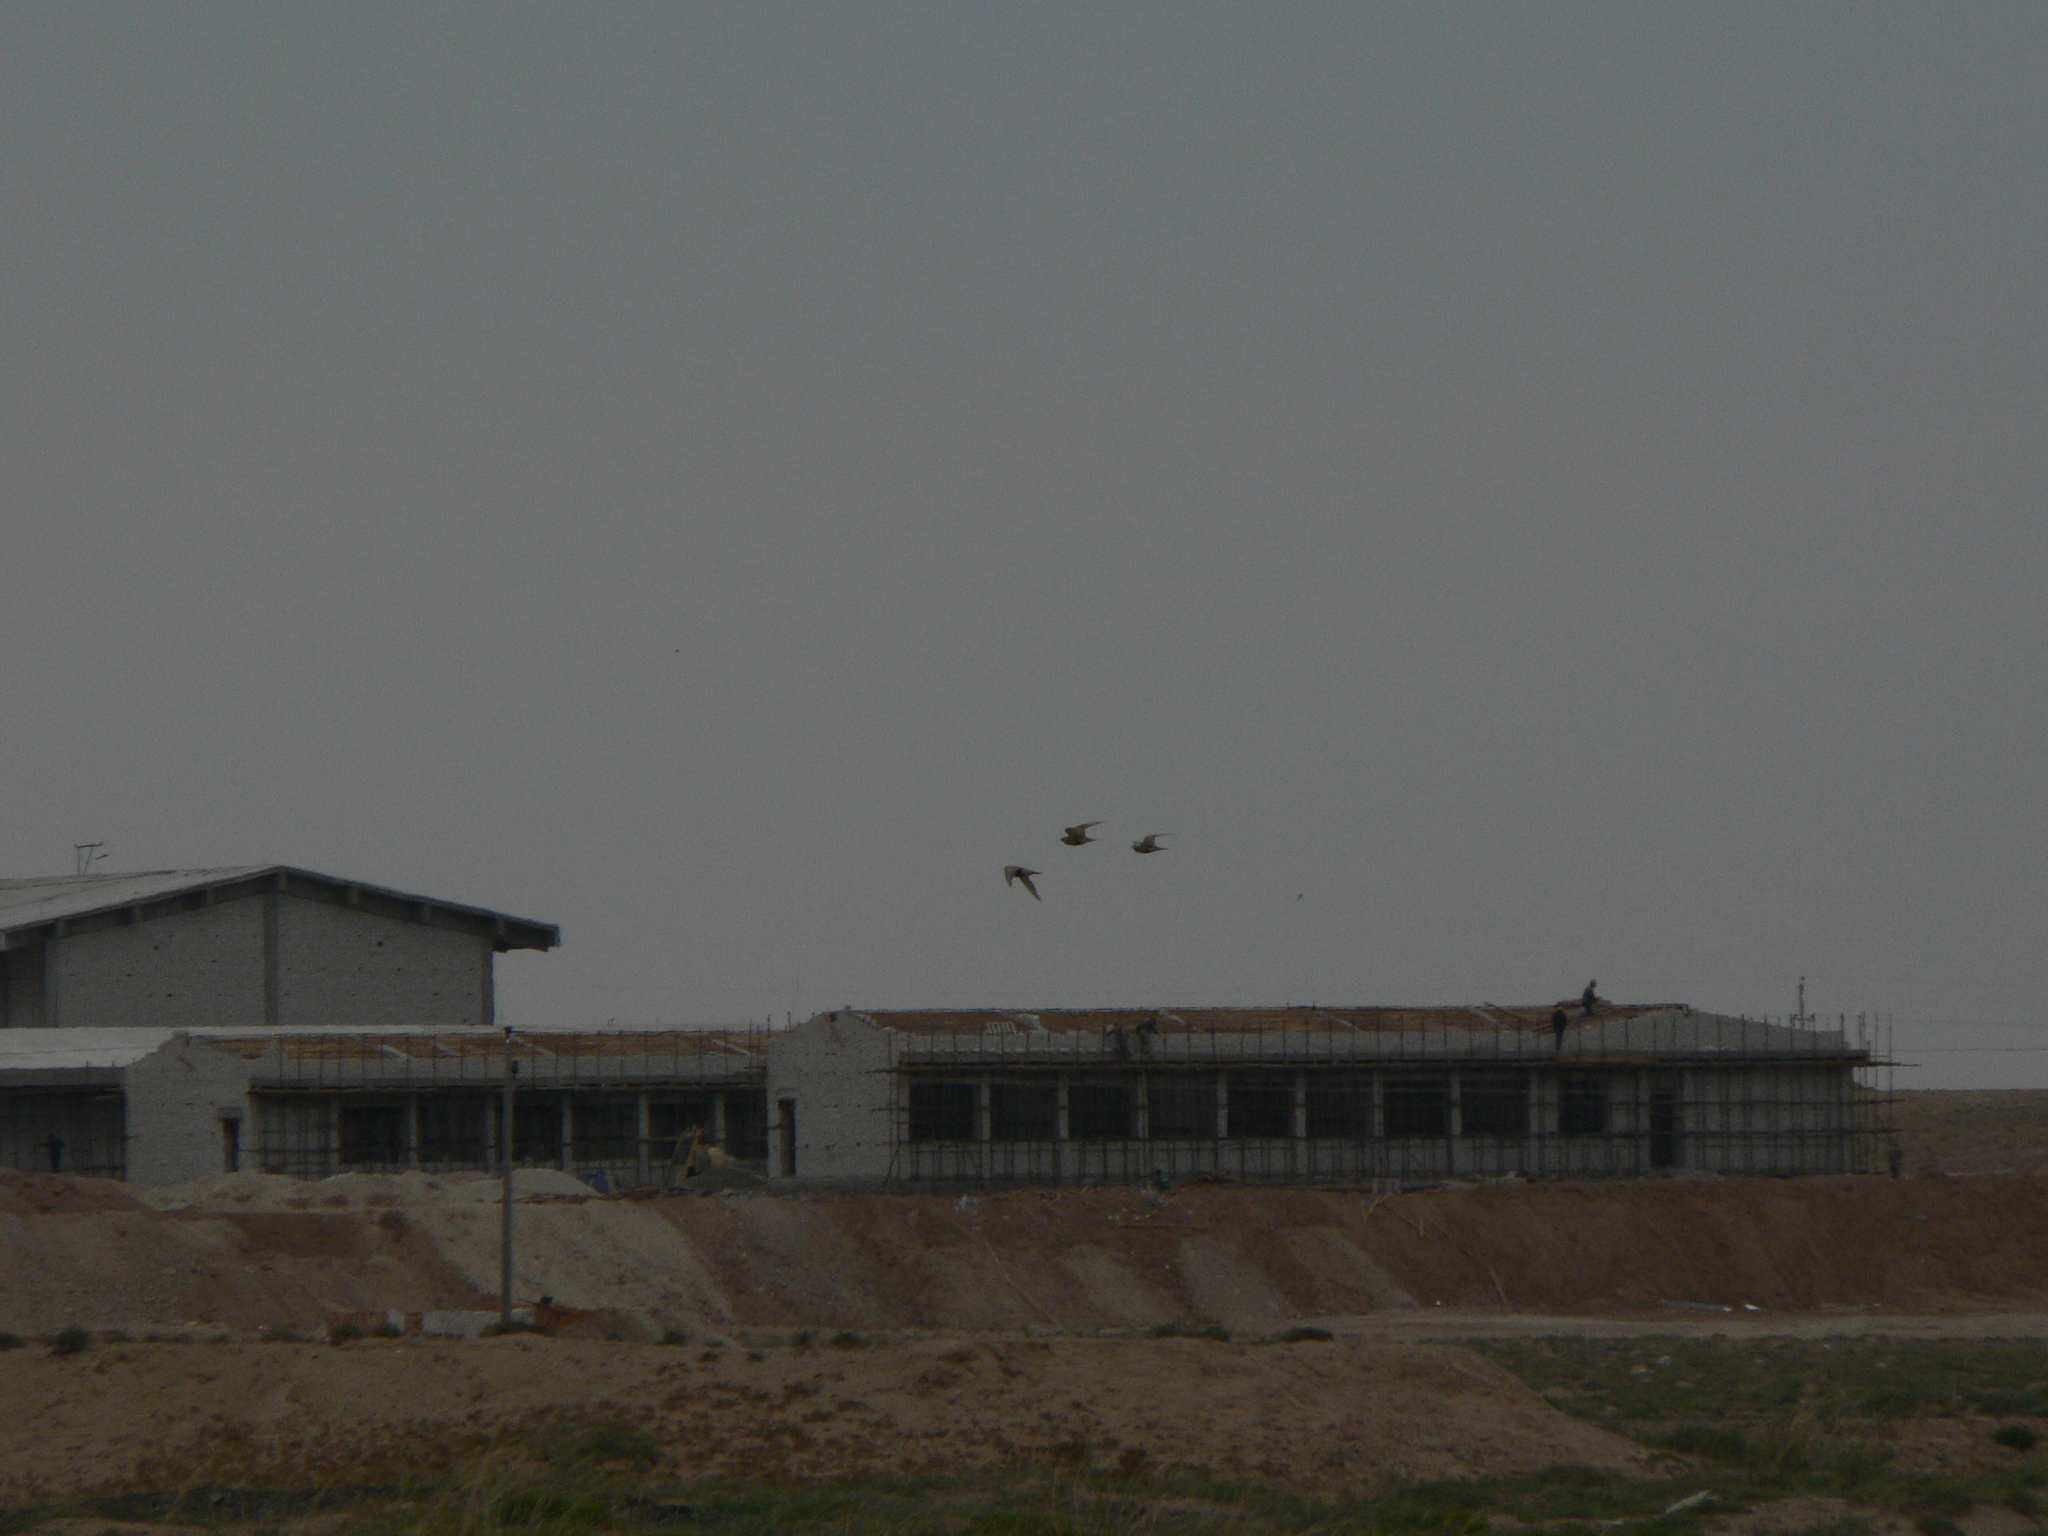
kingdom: Animalia
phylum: Chordata
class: Aves
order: Pteroclidiformes
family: Pteroclididae
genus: Syrrhaptes
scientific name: Syrrhaptes paradoxus
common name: Pallas's sandgrouse
